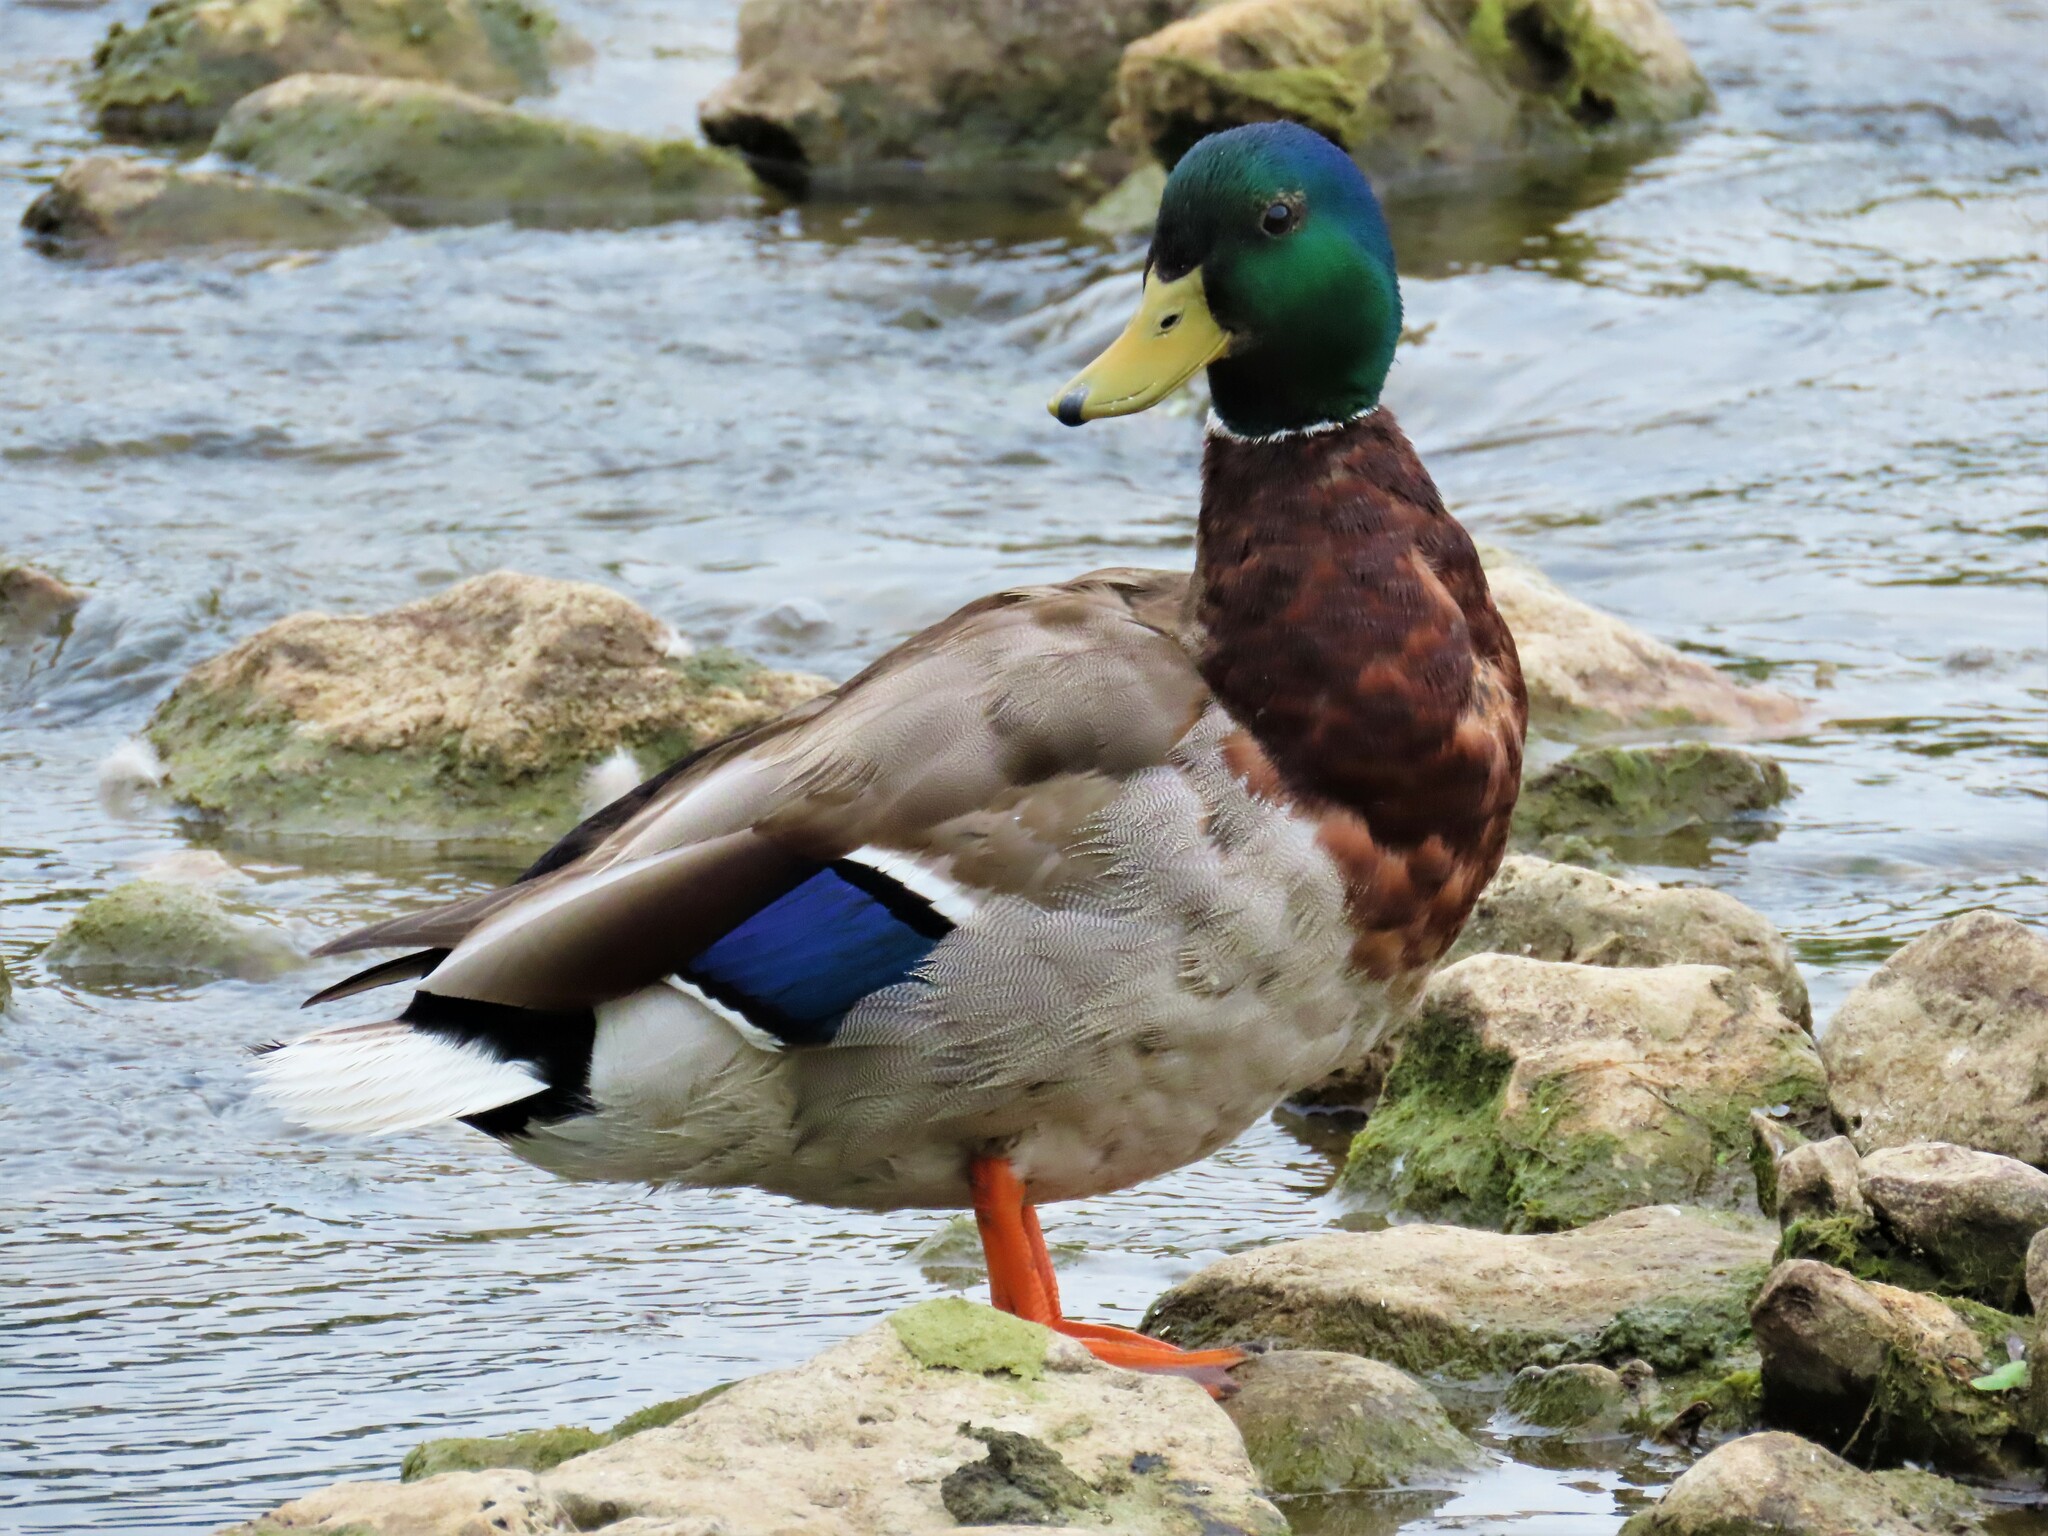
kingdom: Animalia
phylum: Chordata
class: Aves
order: Anseriformes
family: Anatidae
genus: Anas
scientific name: Anas platyrhynchos
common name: Mallard
